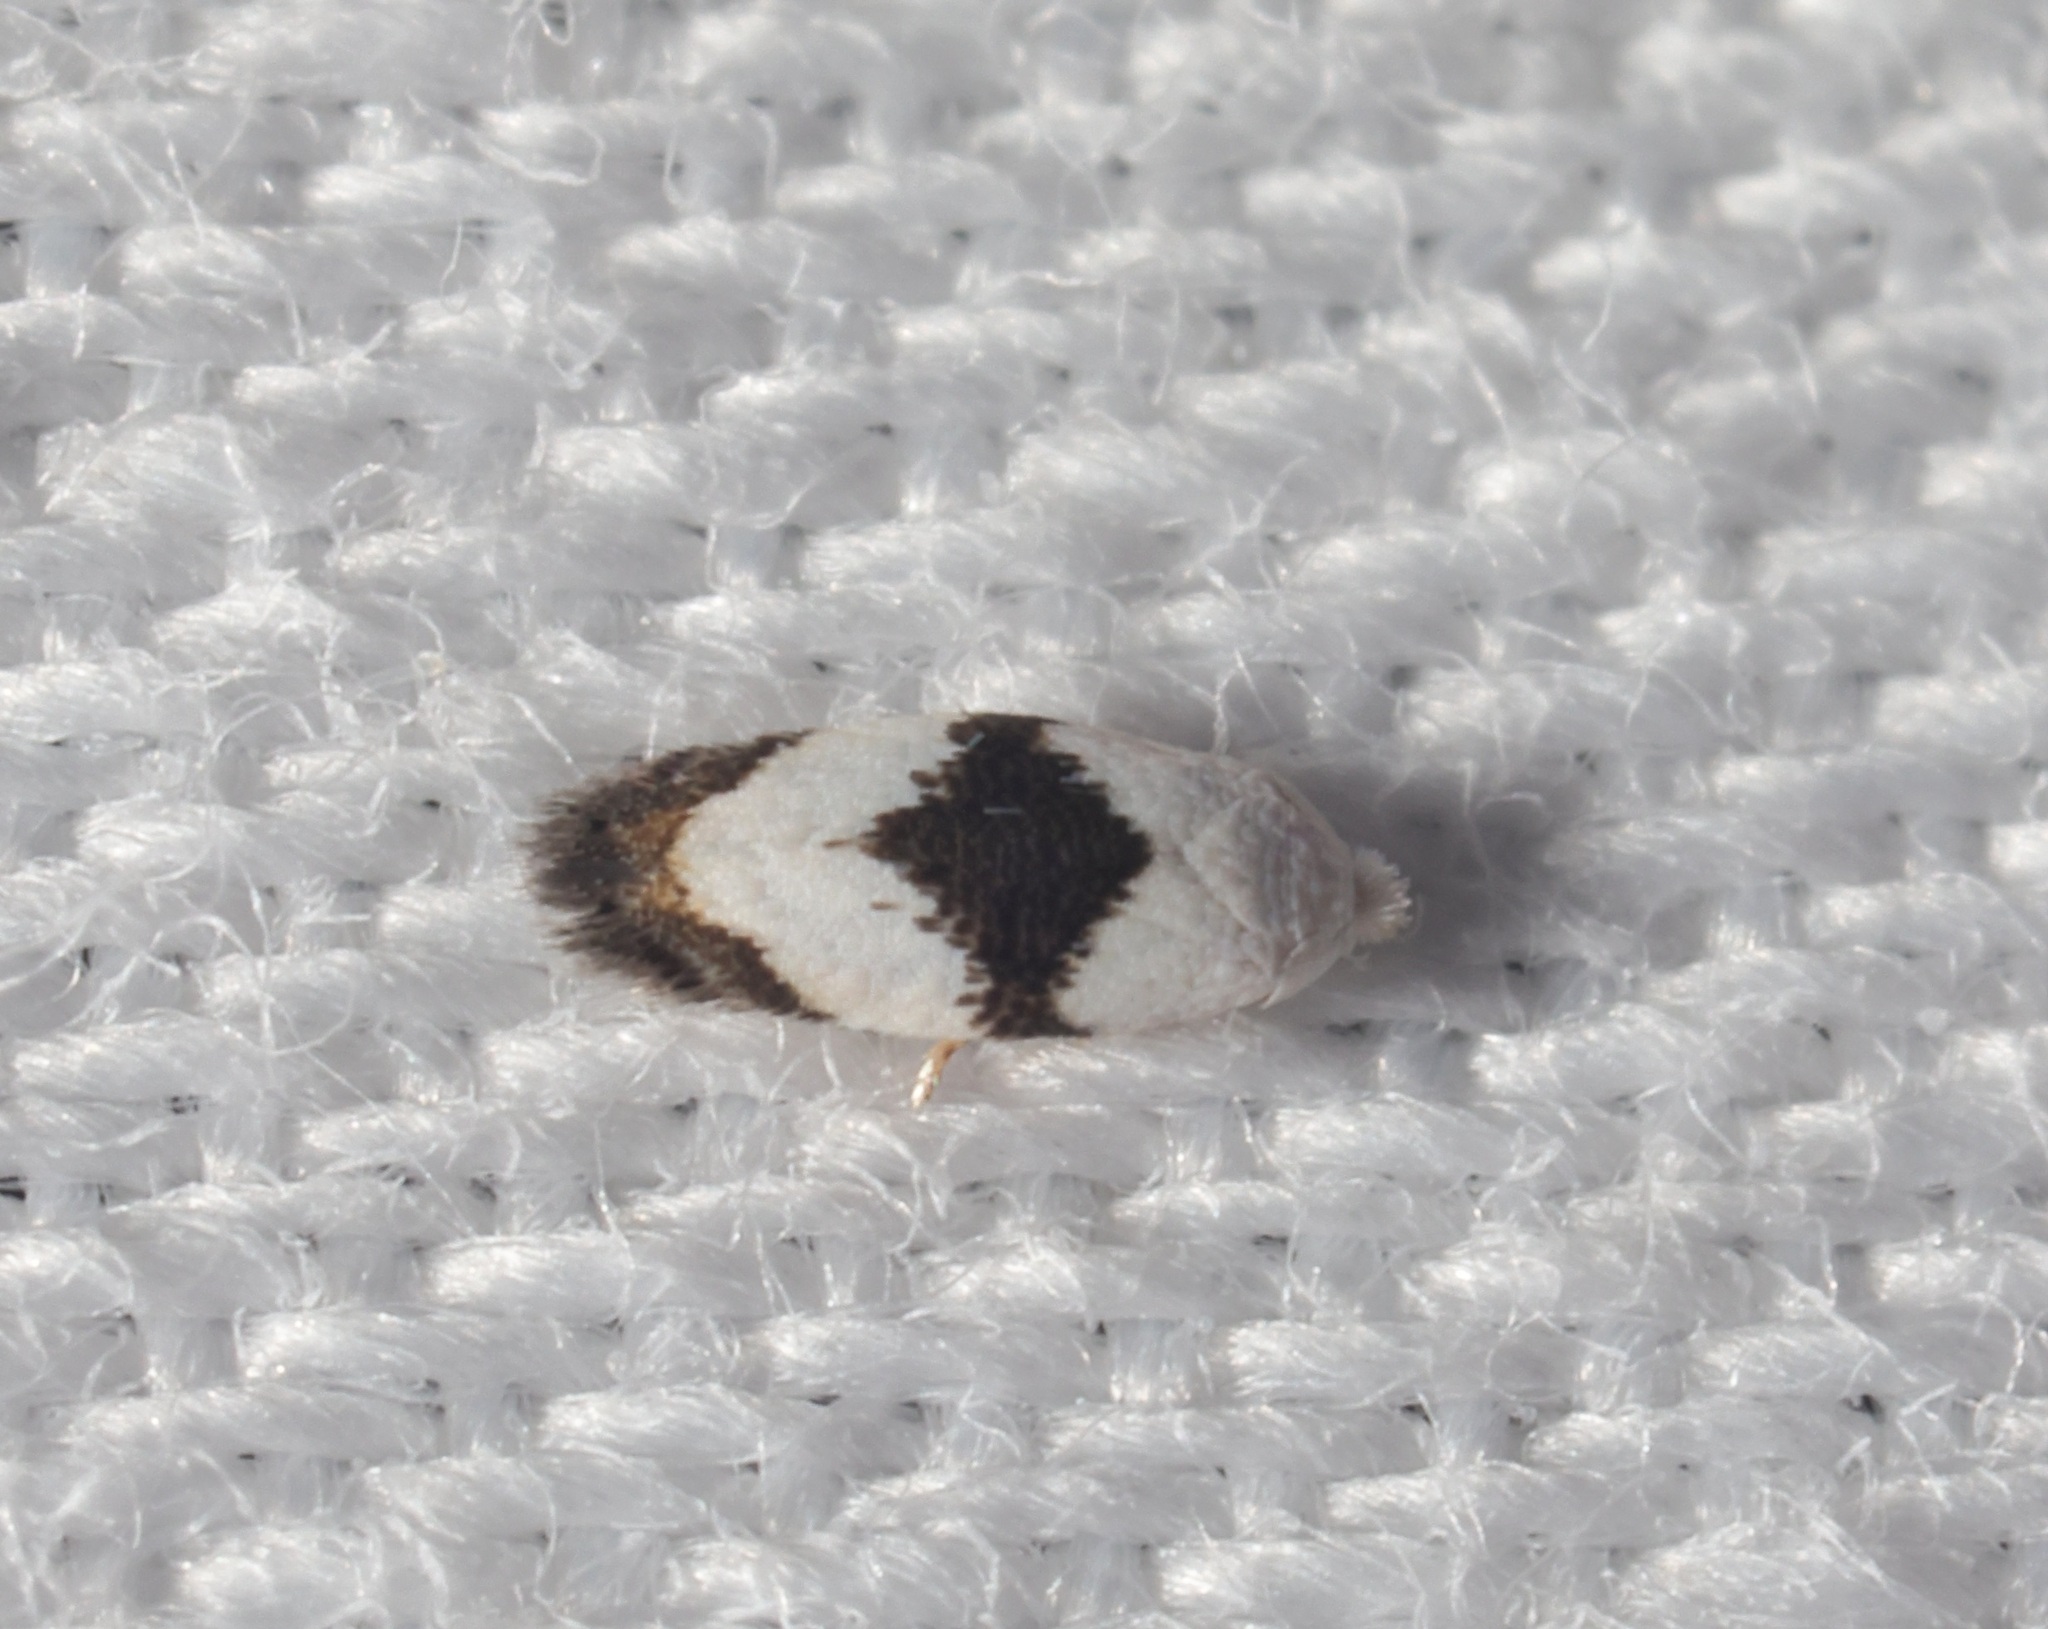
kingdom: Animalia
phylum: Arthropoda
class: Insecta
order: Lepidoptera
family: Opostegidae
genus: Pseudopostega
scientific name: Pseudopostega zelopa
